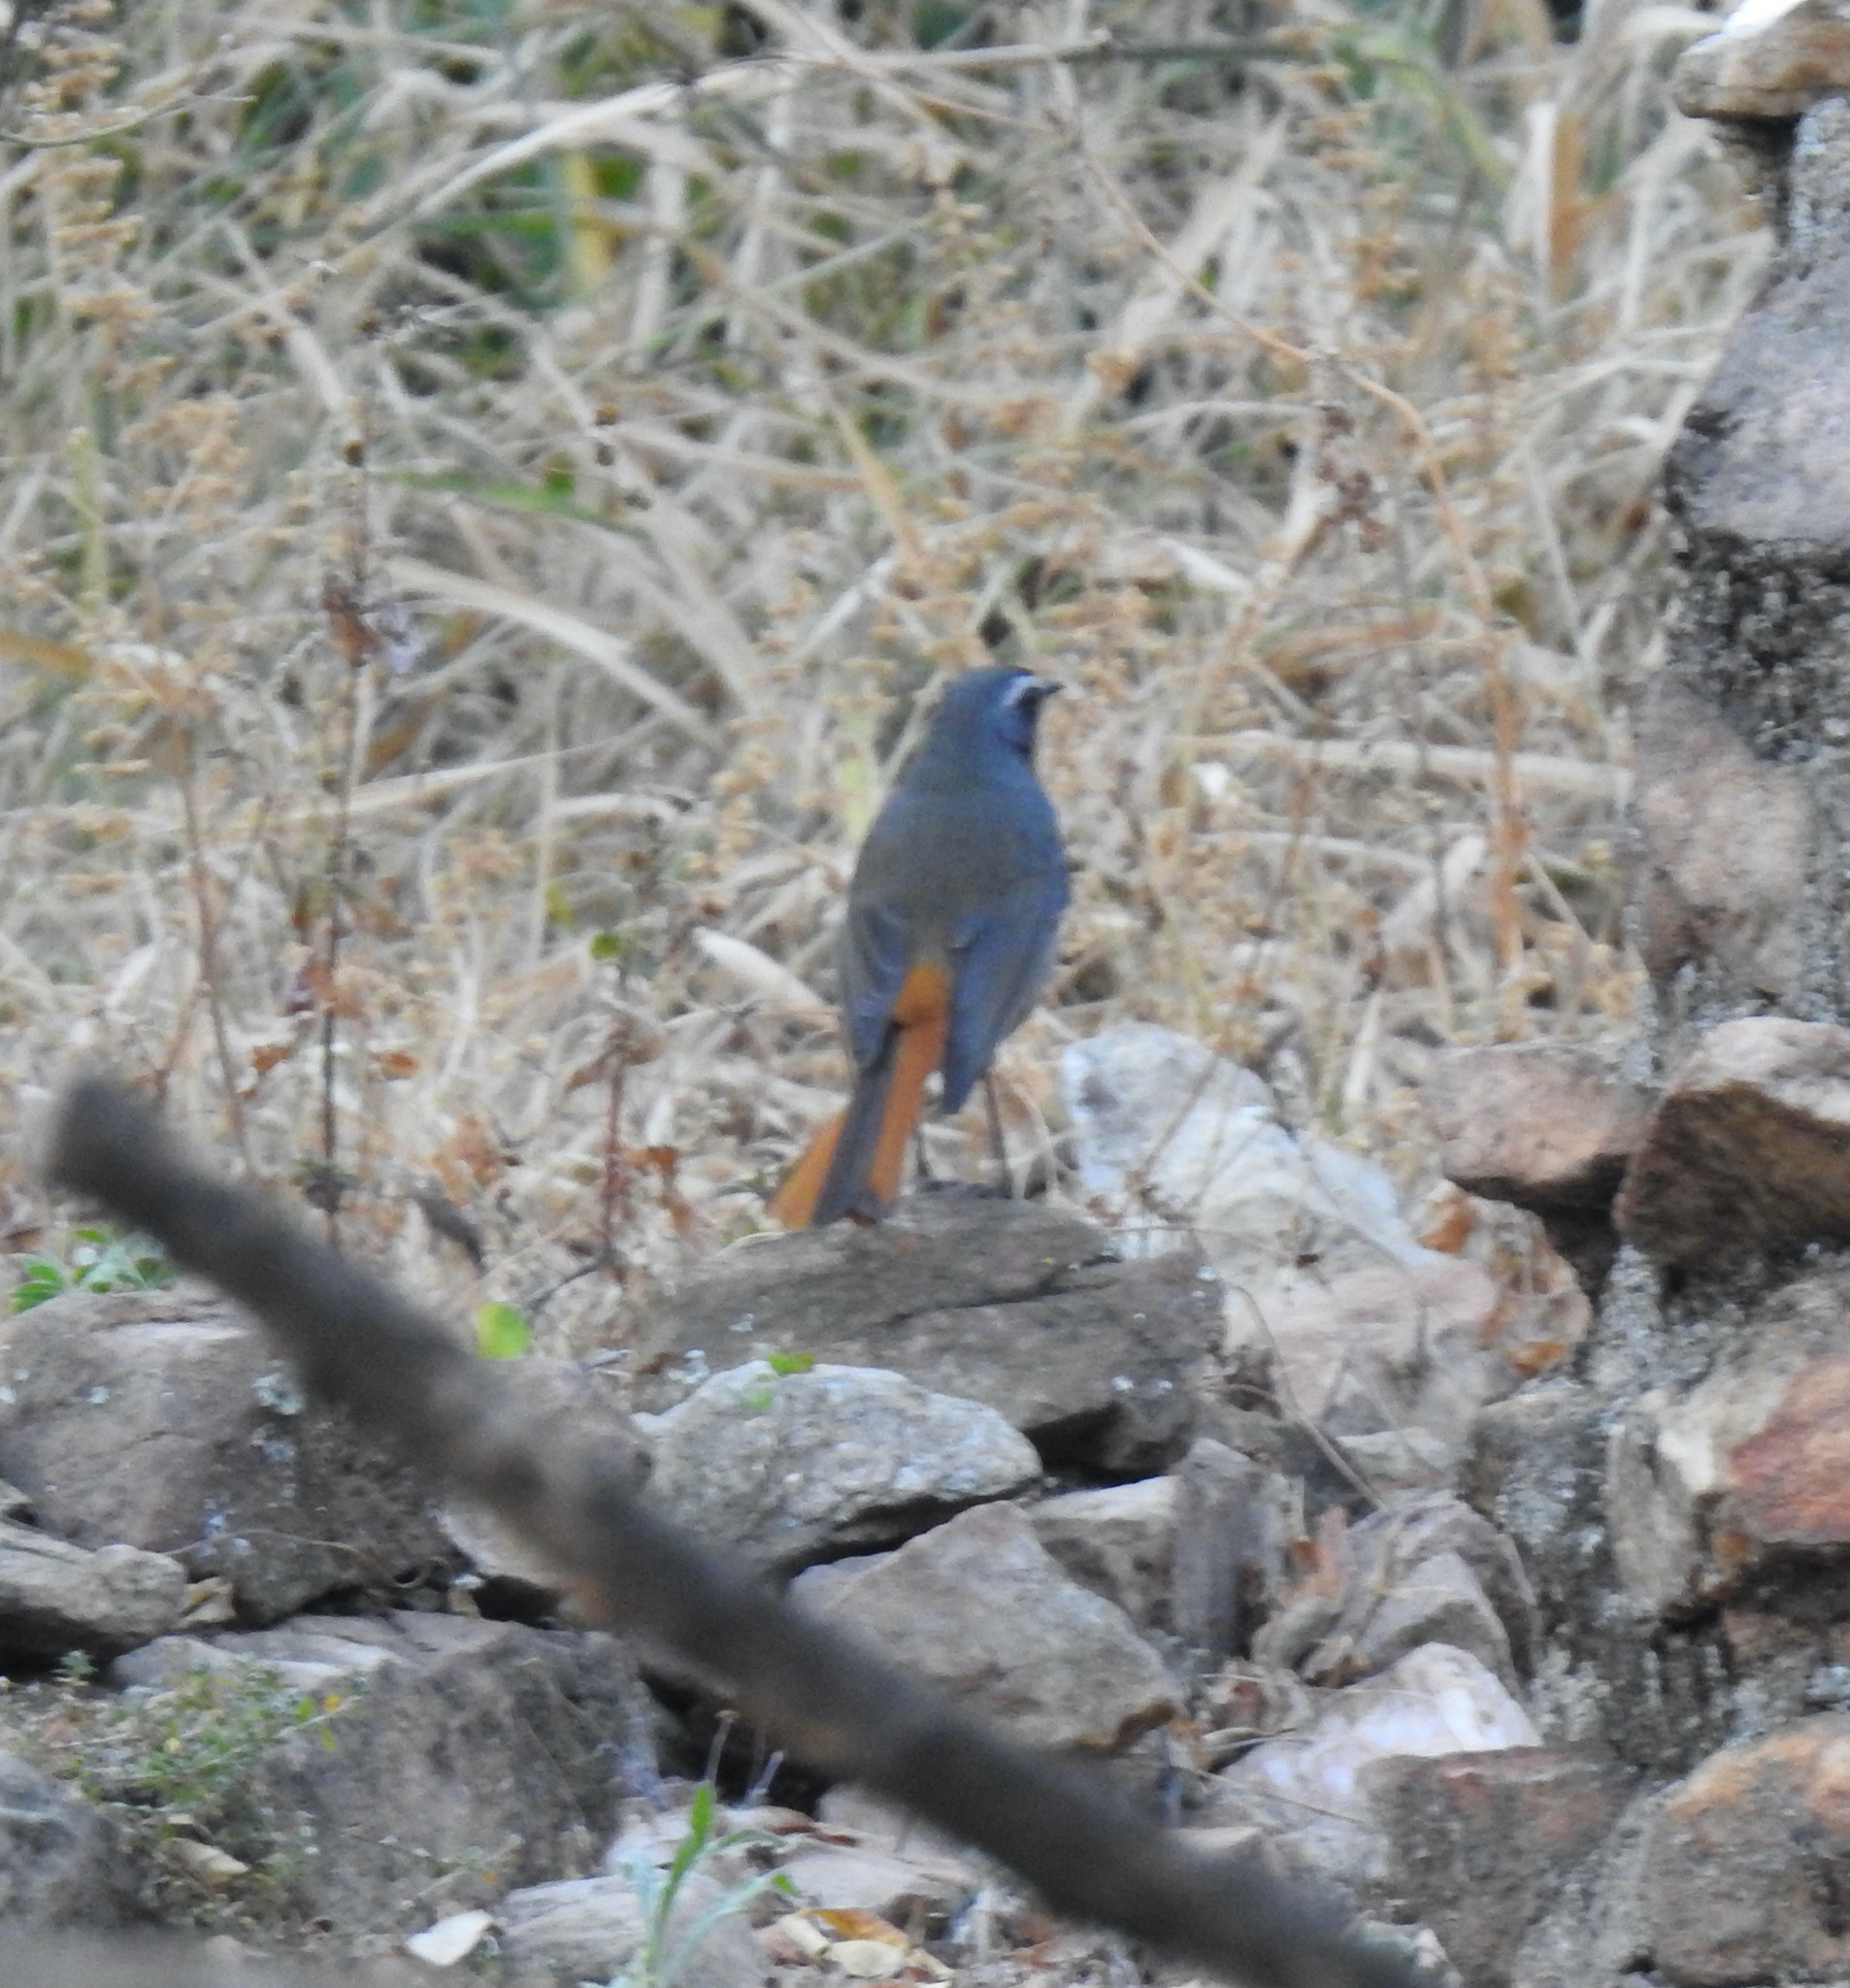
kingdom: Animalia
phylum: Chordata
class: Aves
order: Passeriformes
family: Muscicapidae
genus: Cossypha
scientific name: Cossypha caffra
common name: Cape robin-chat
